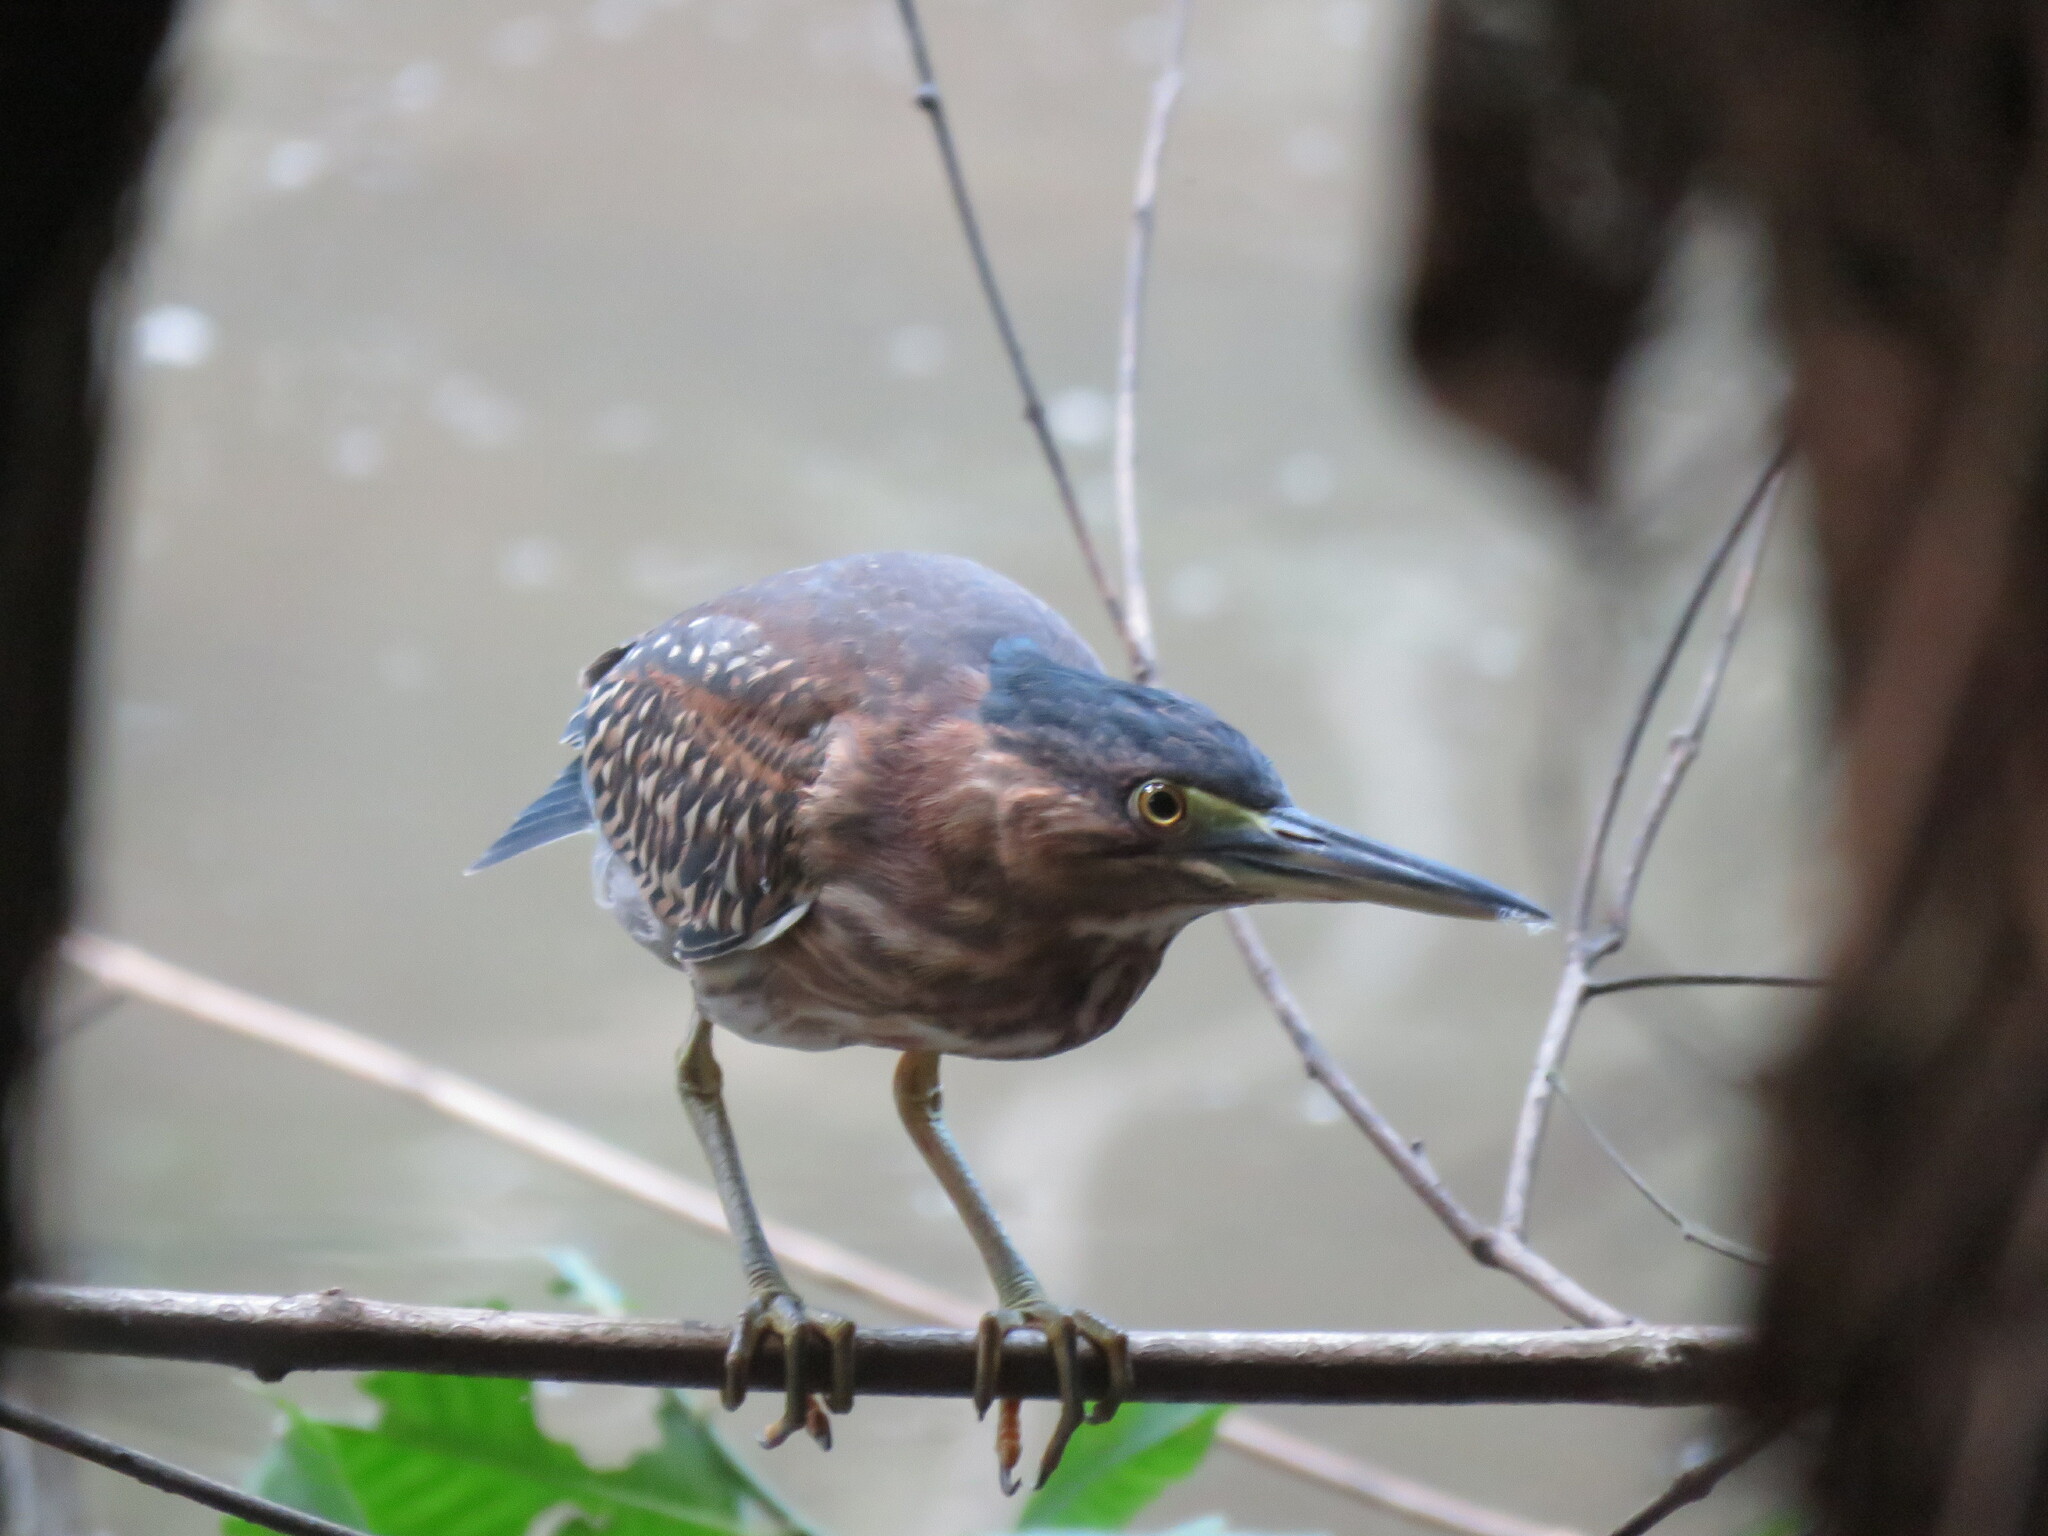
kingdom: Animalia
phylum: Chordata
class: Aves
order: Pelecaniformes
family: Ardeidae
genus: Butorides
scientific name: Butorides striata
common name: Striated heron
